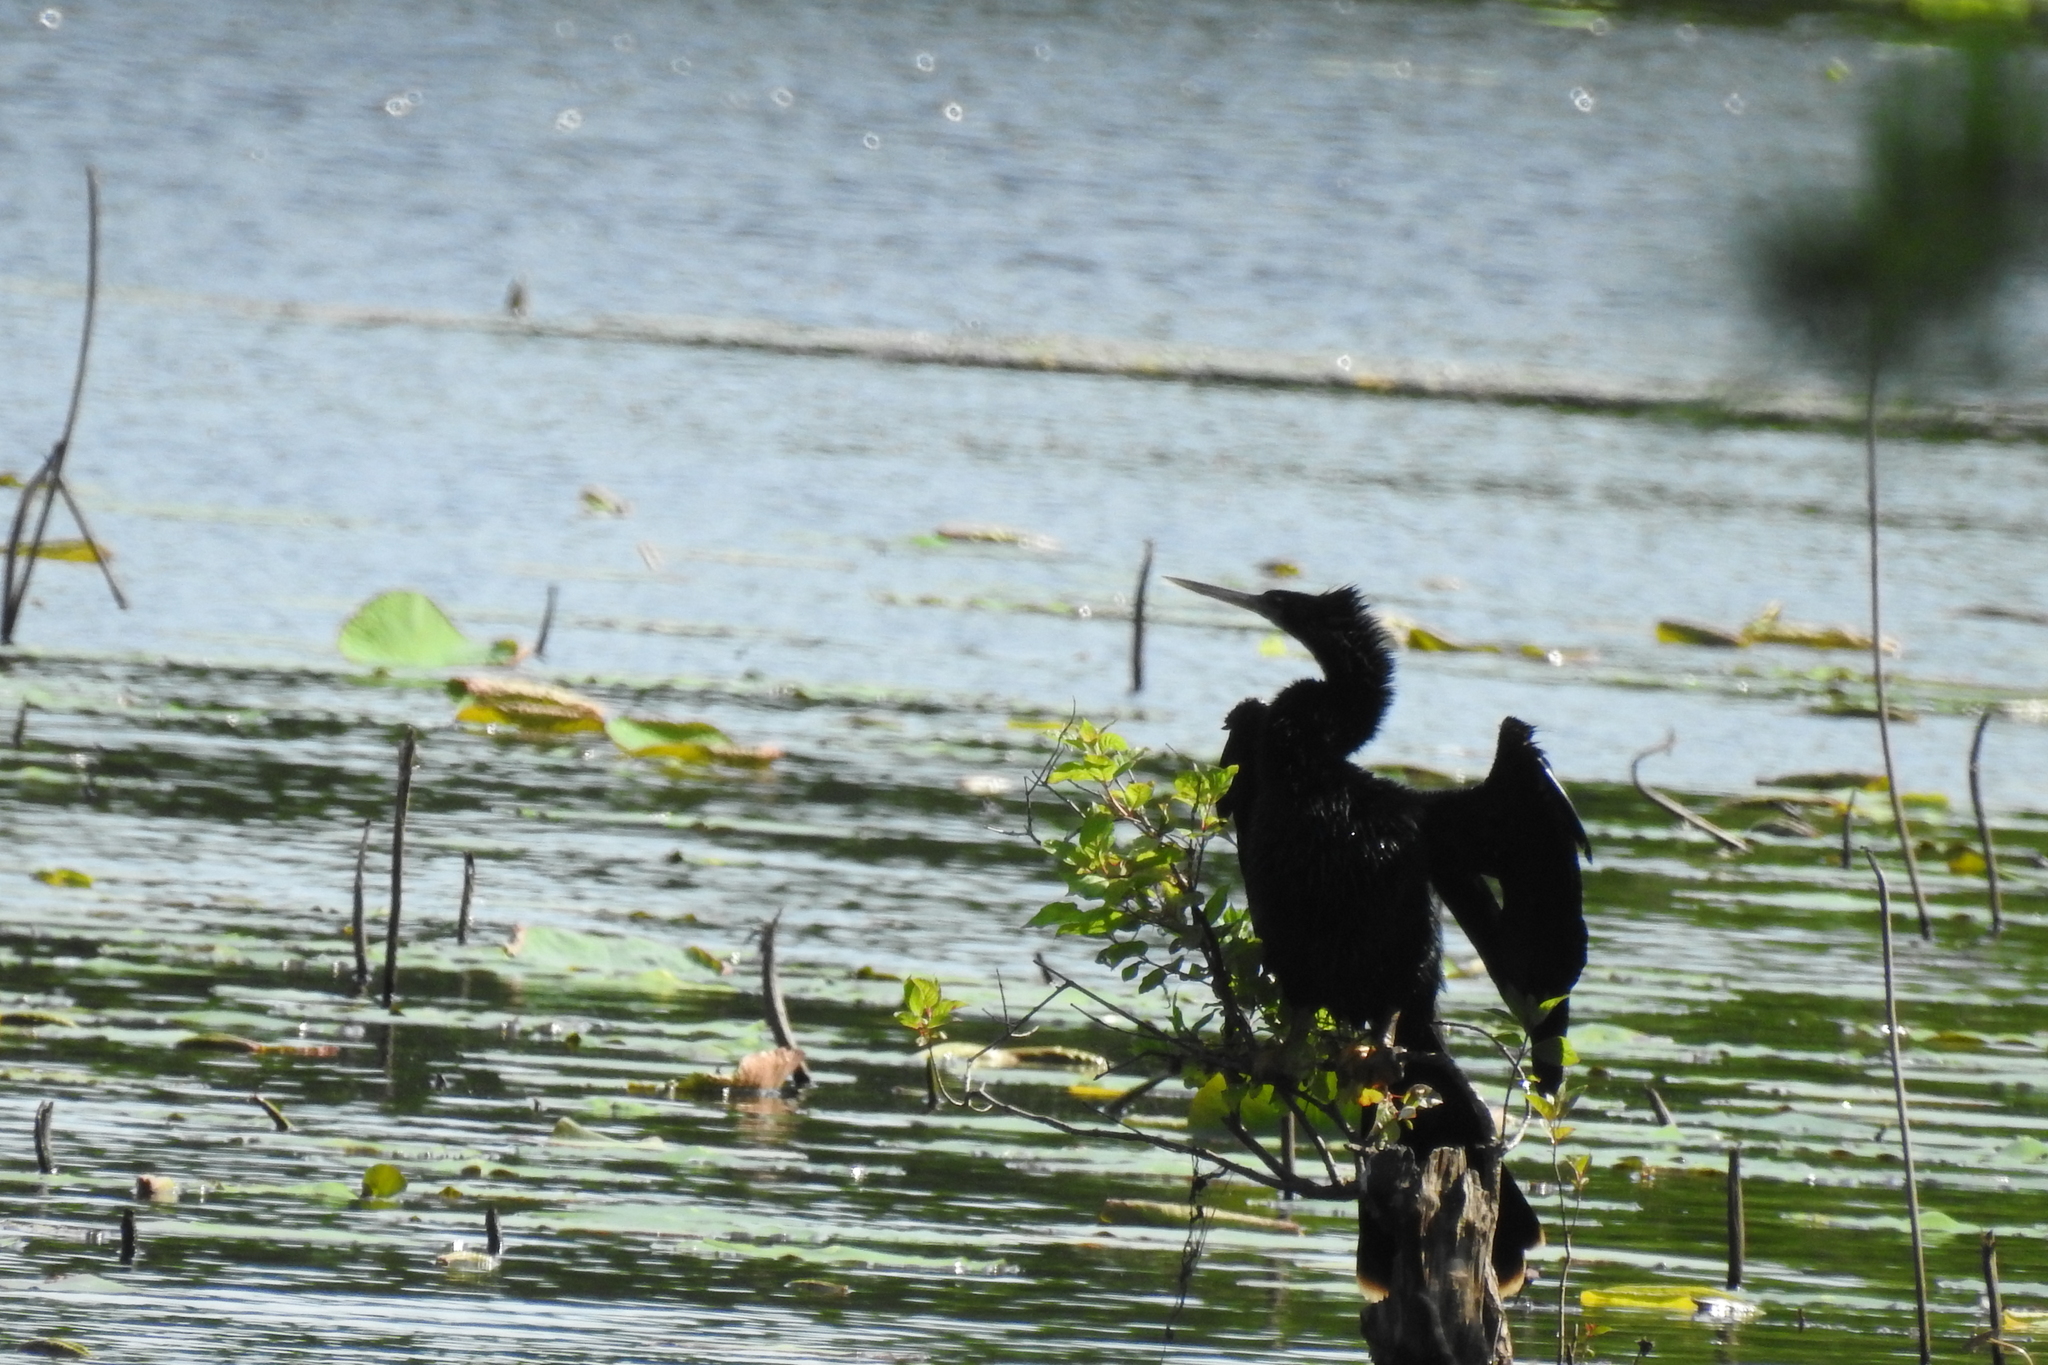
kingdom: Animalia
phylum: Chordata
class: Aves
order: Suliformes
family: Anhingidae
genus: Anhinga
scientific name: Anhinga anhinga
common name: Anhinga
